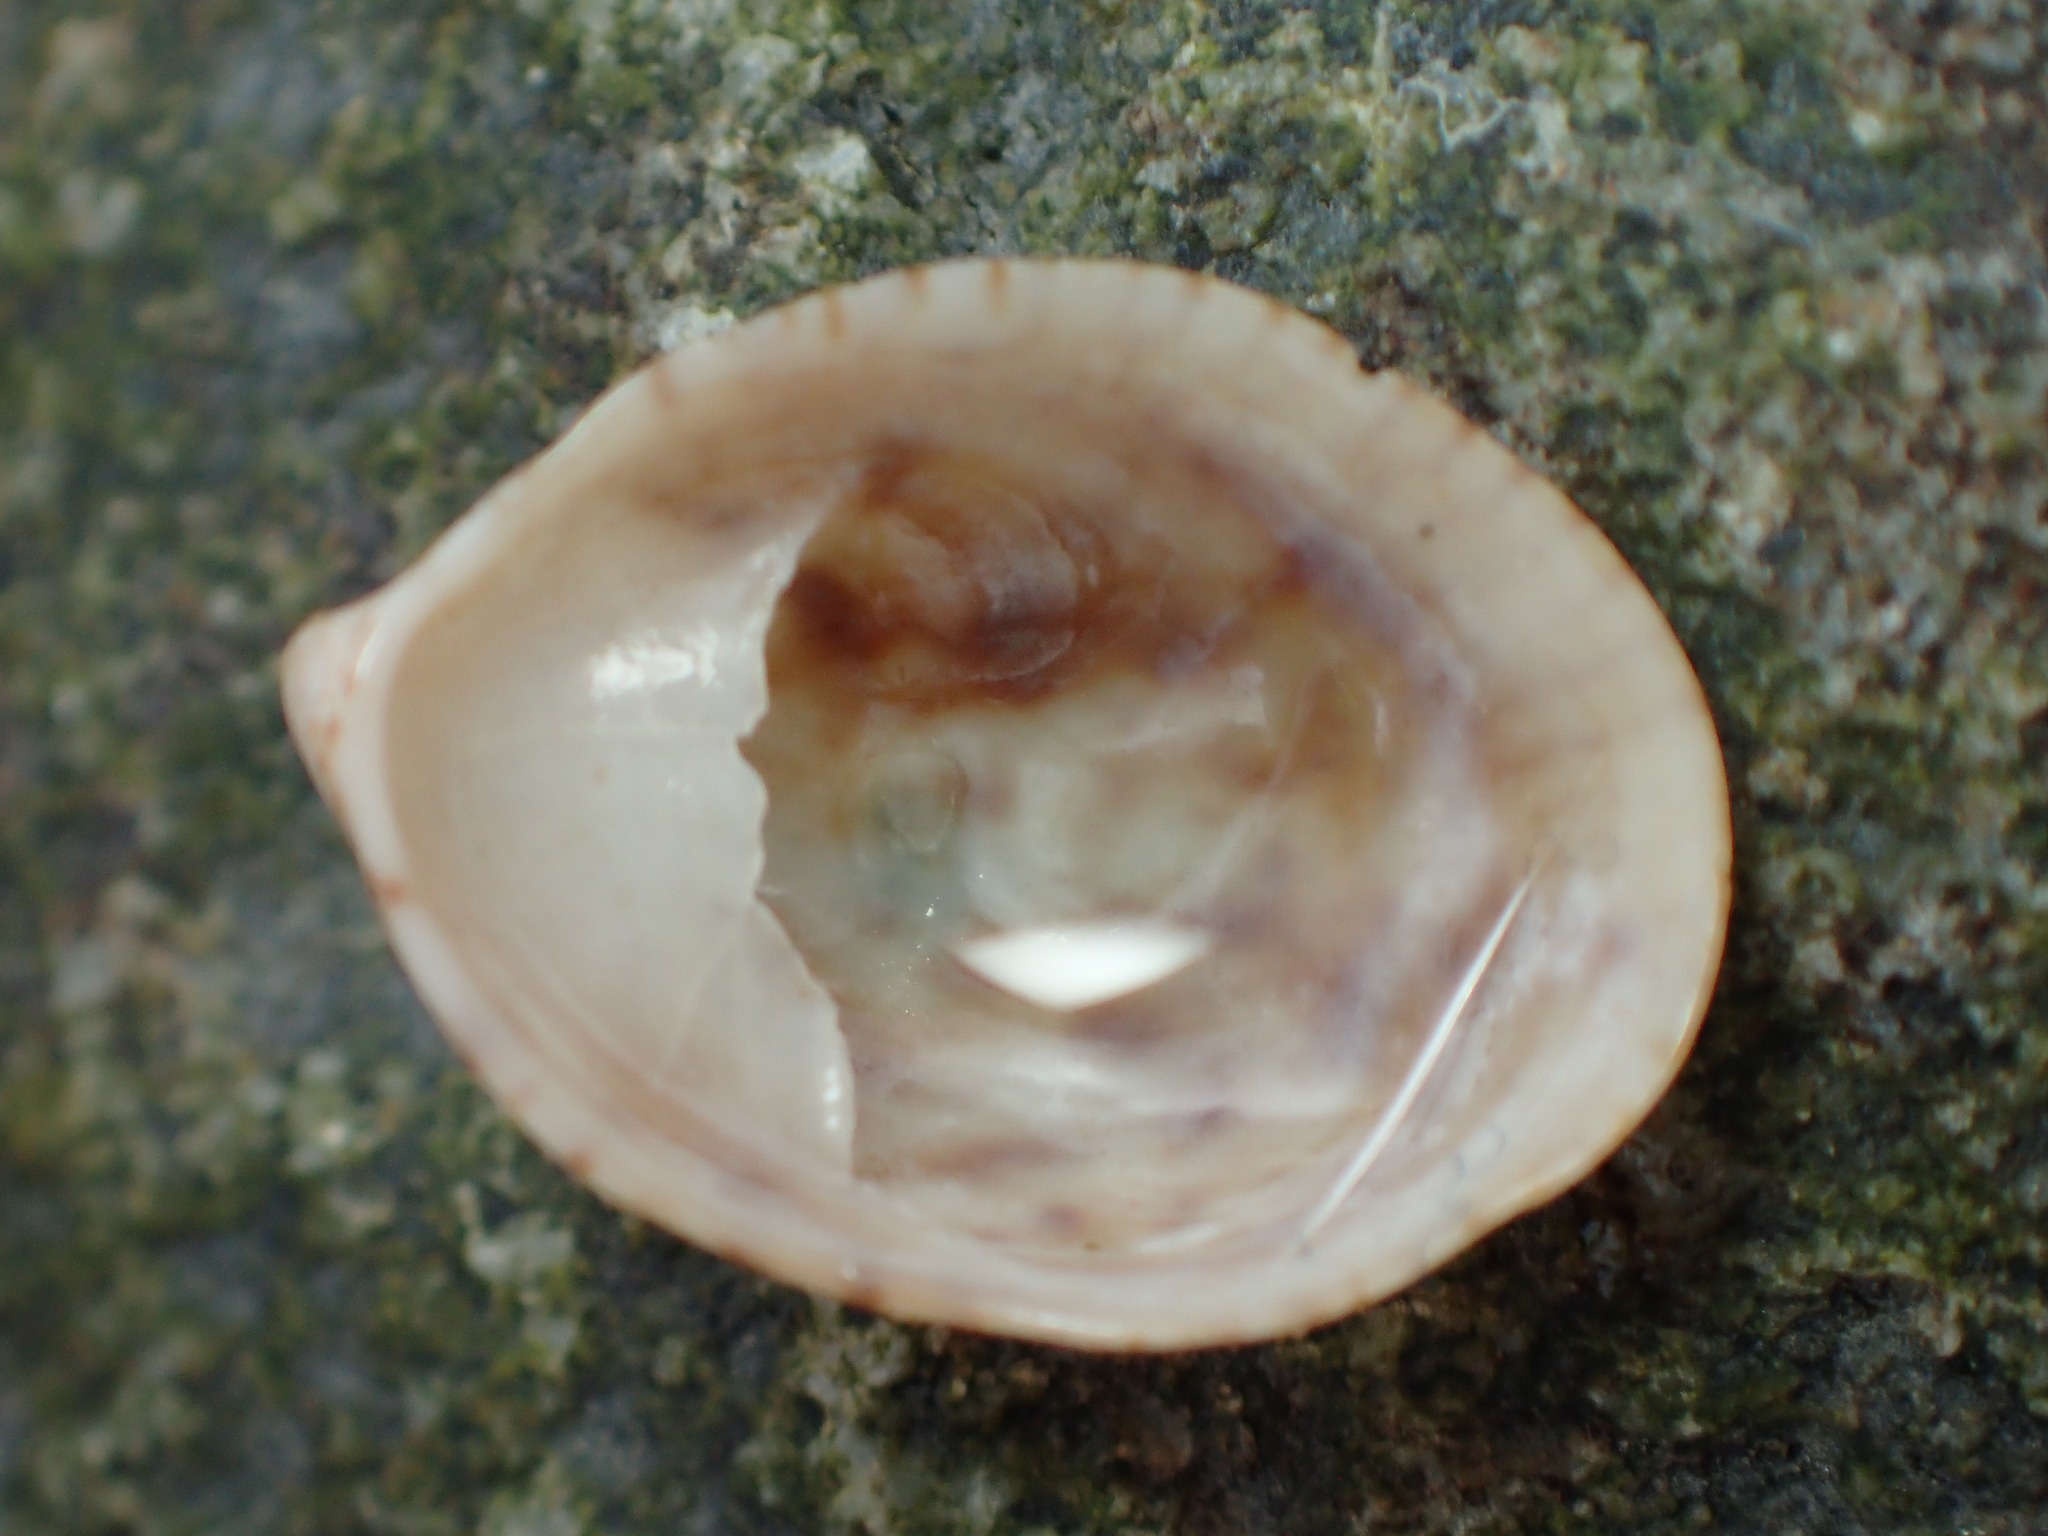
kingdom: Animalia
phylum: Mollusca
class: Gastropoda
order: Littorinimorpha
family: Calyptraeidae
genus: Crepidula
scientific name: Crepidula convexa
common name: Convex slippersnail
